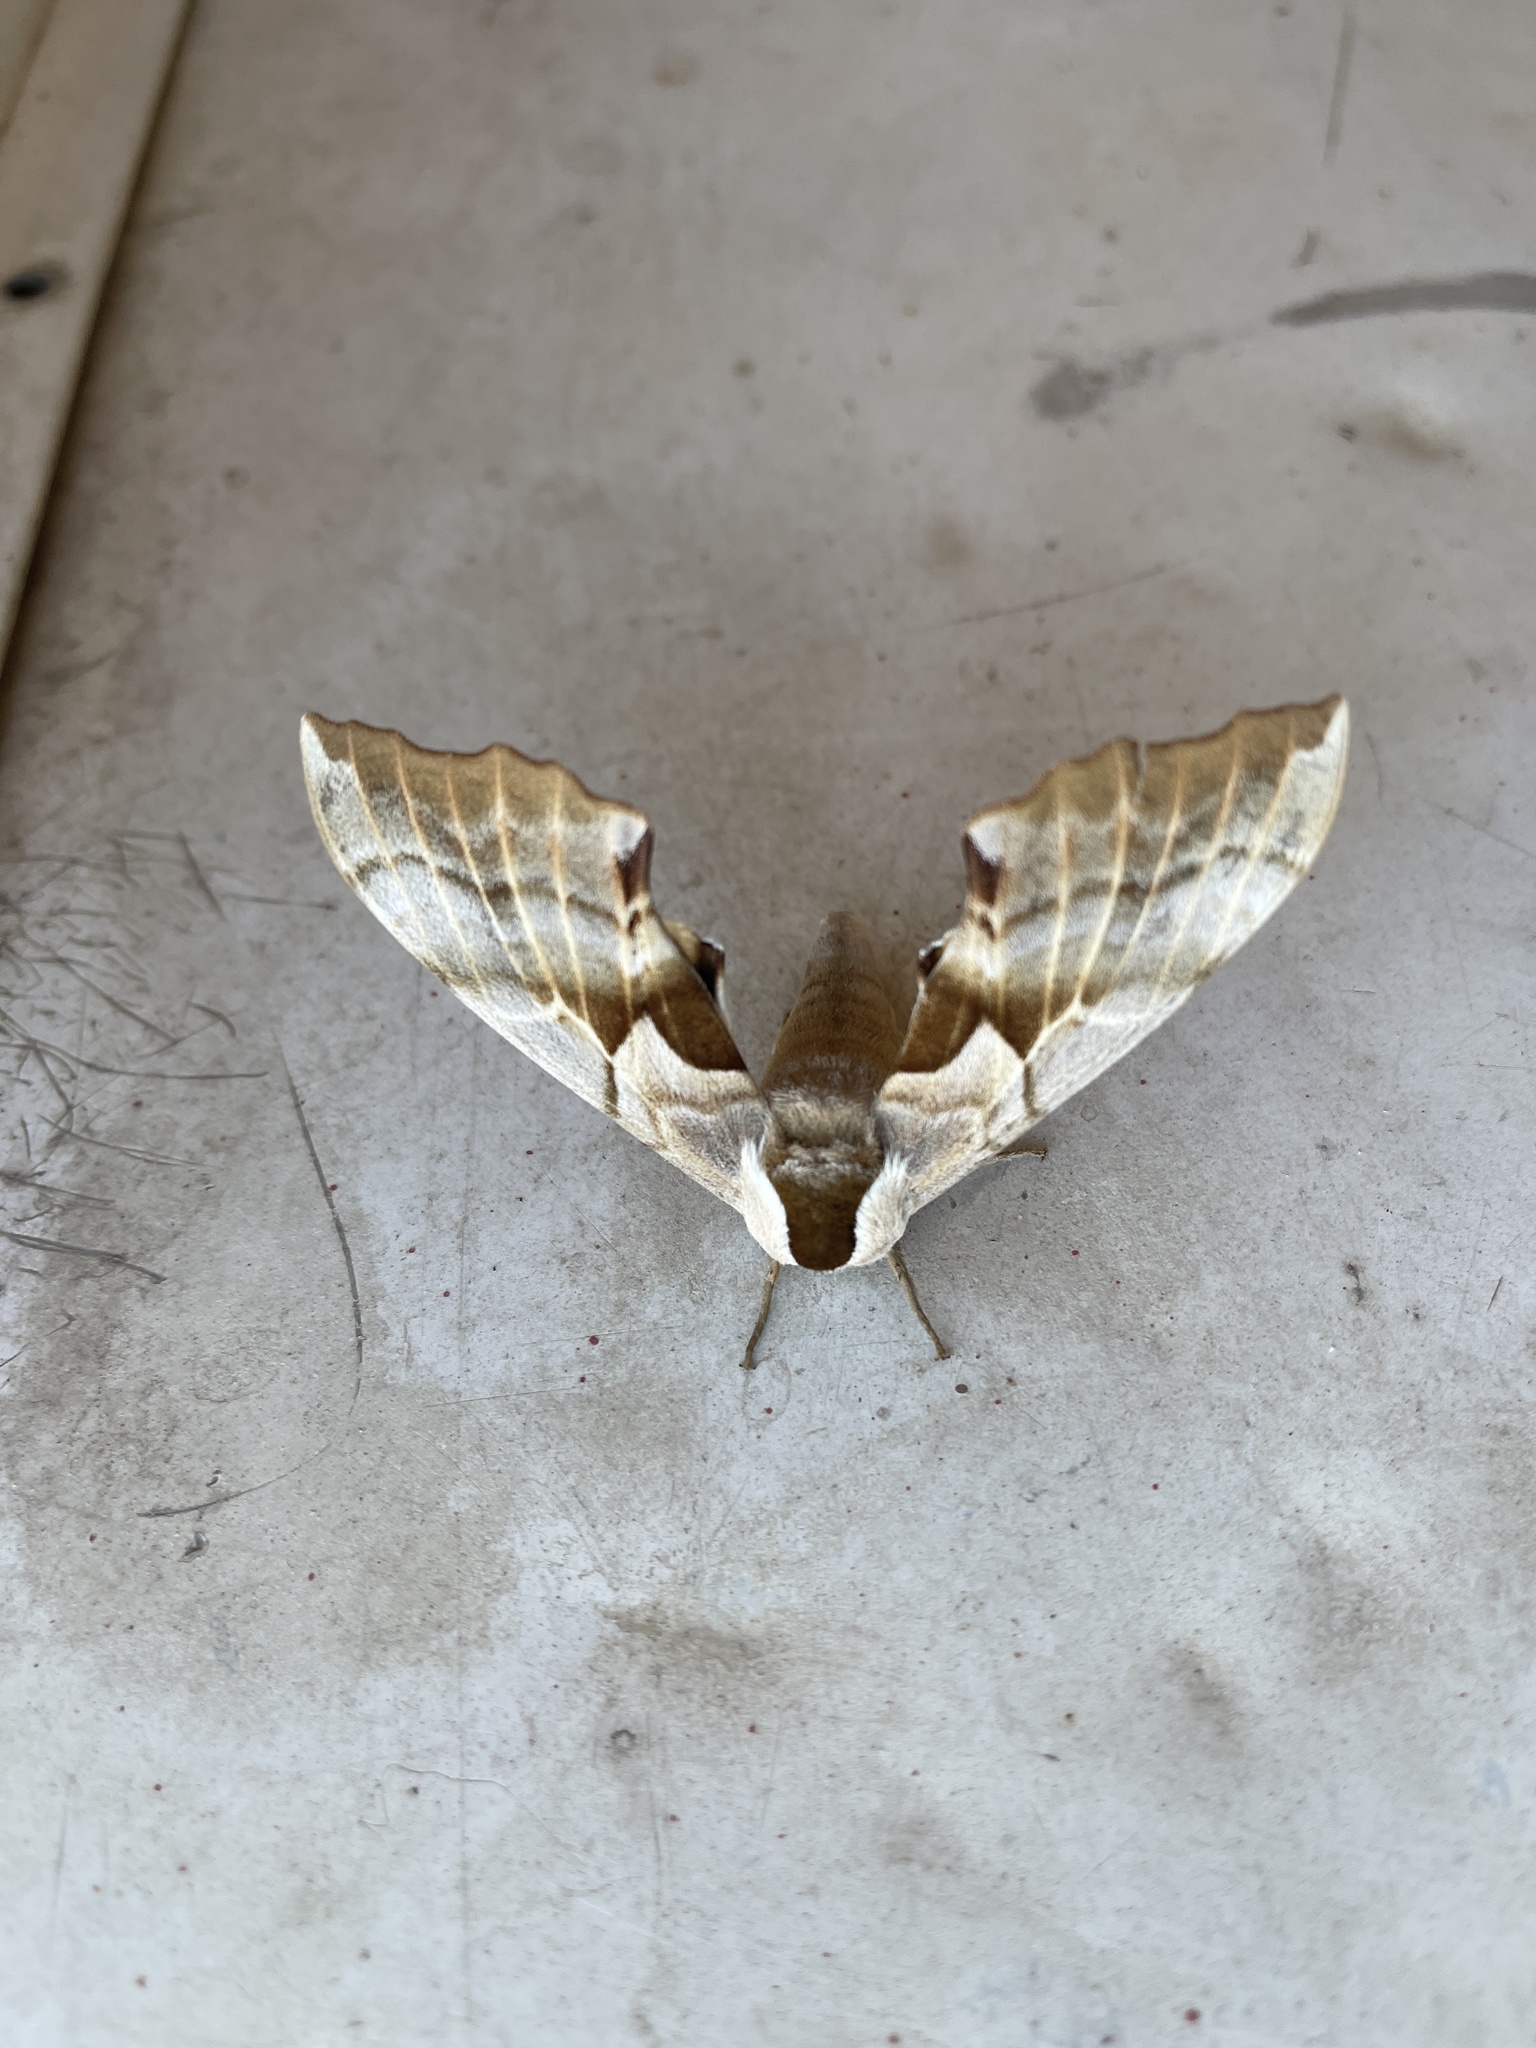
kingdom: Animalia
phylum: Arthropoda
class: Insecta
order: Lepidoptera
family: Sphingidae
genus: Smerinthus
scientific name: Smerinthus cerisyi
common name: Cerisy's sphinx moth
